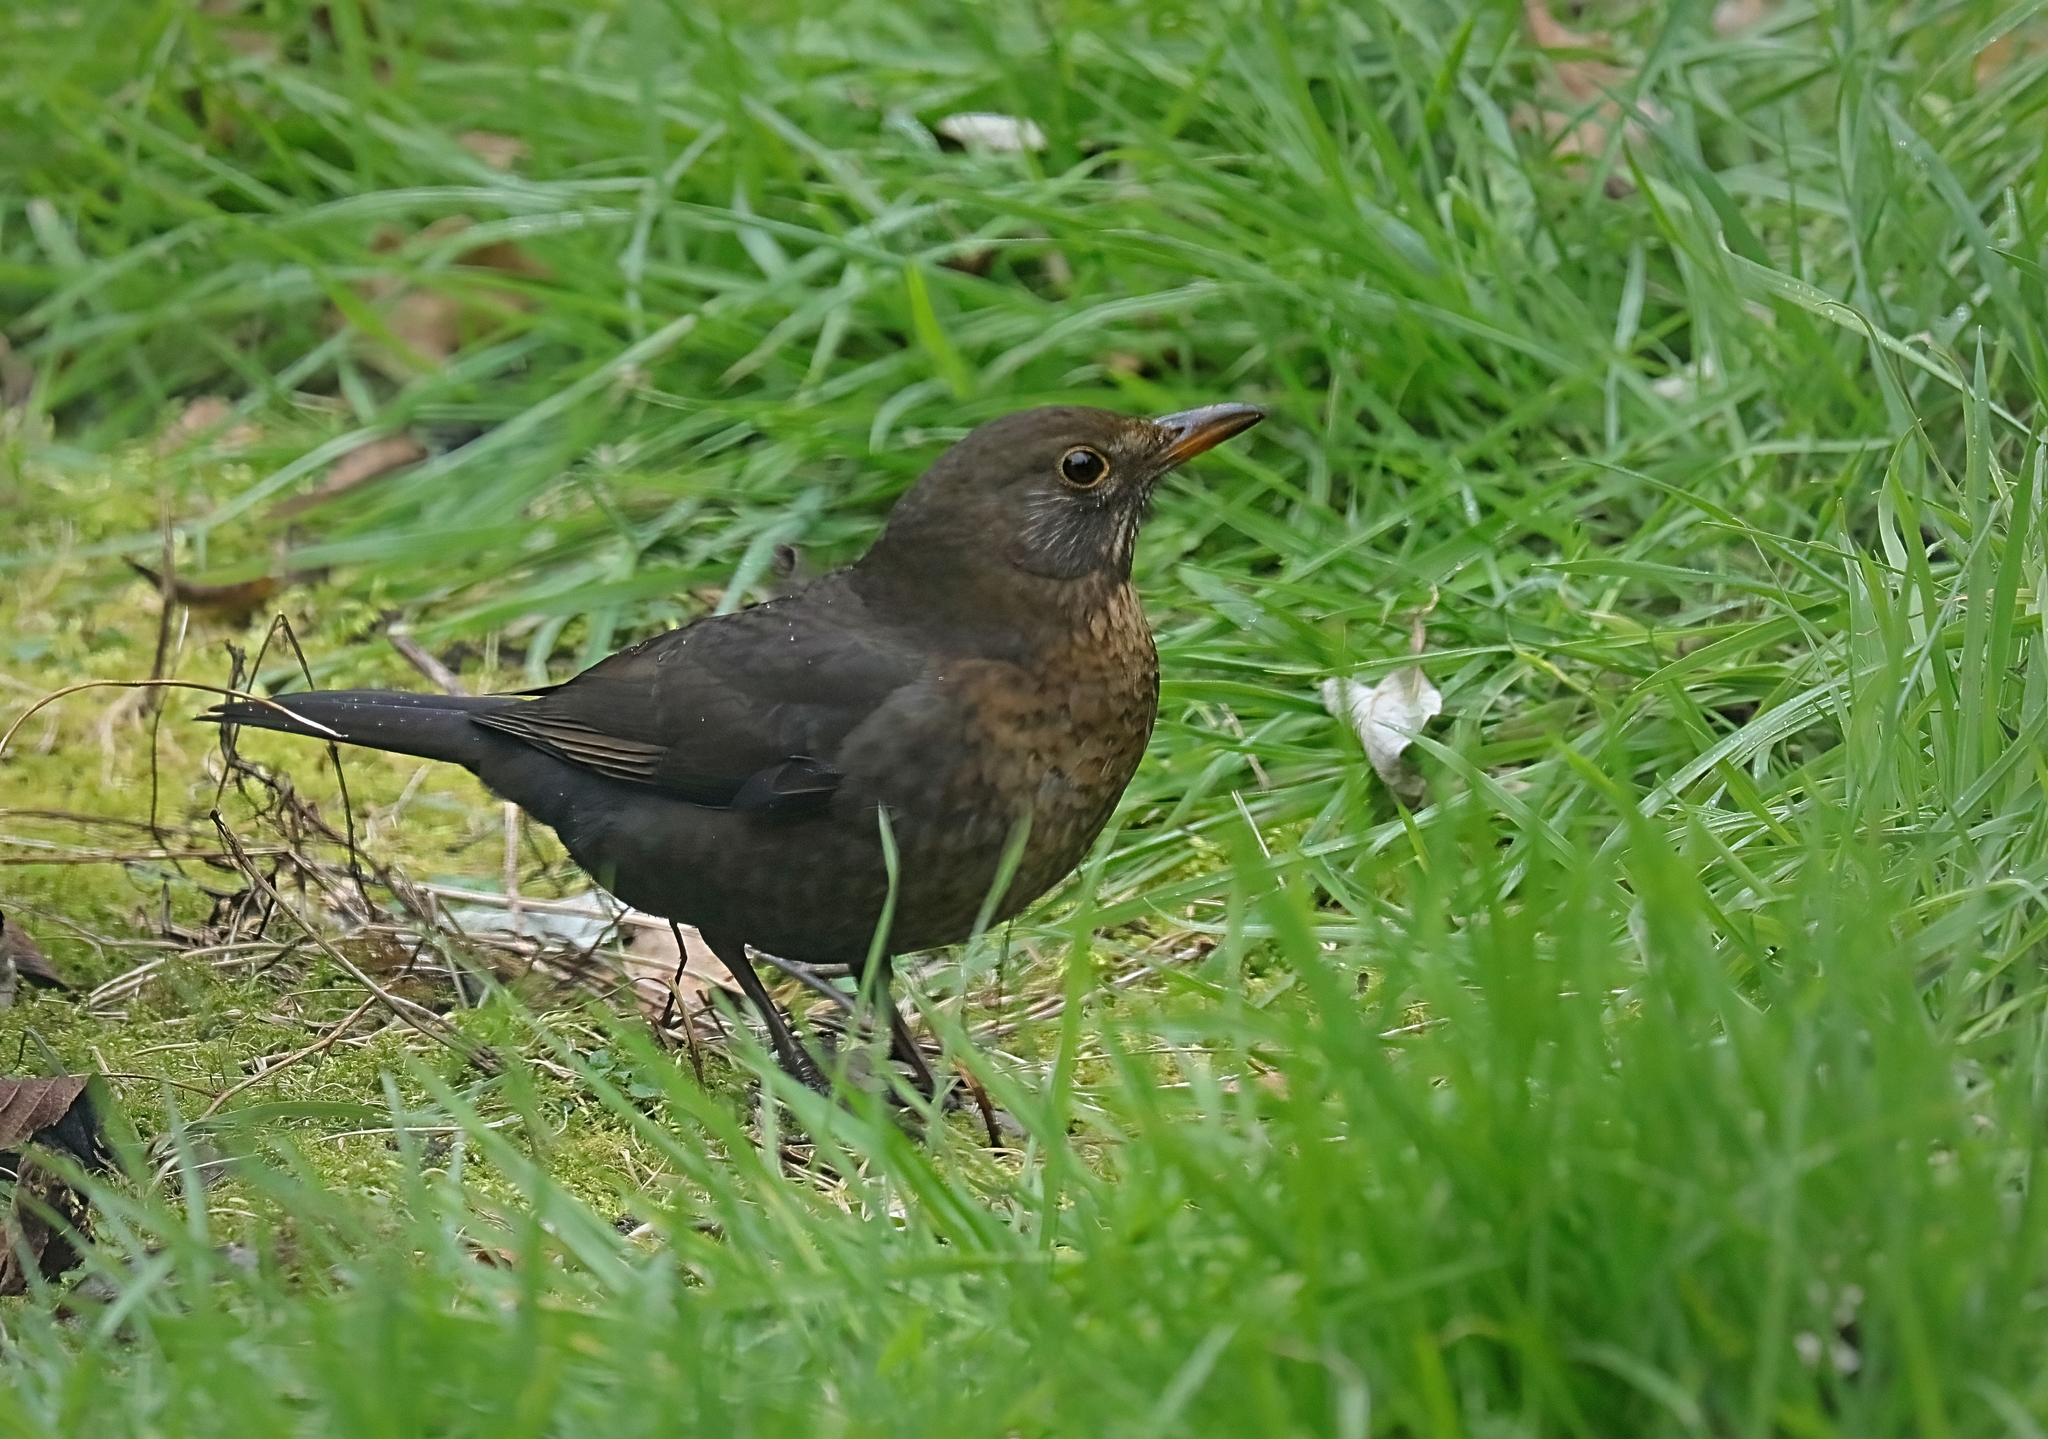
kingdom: Animalia
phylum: Chordata
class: Aves
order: Passeriformes
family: Turdidae
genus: Turdus
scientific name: Turdus merula
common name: Common blackbird
